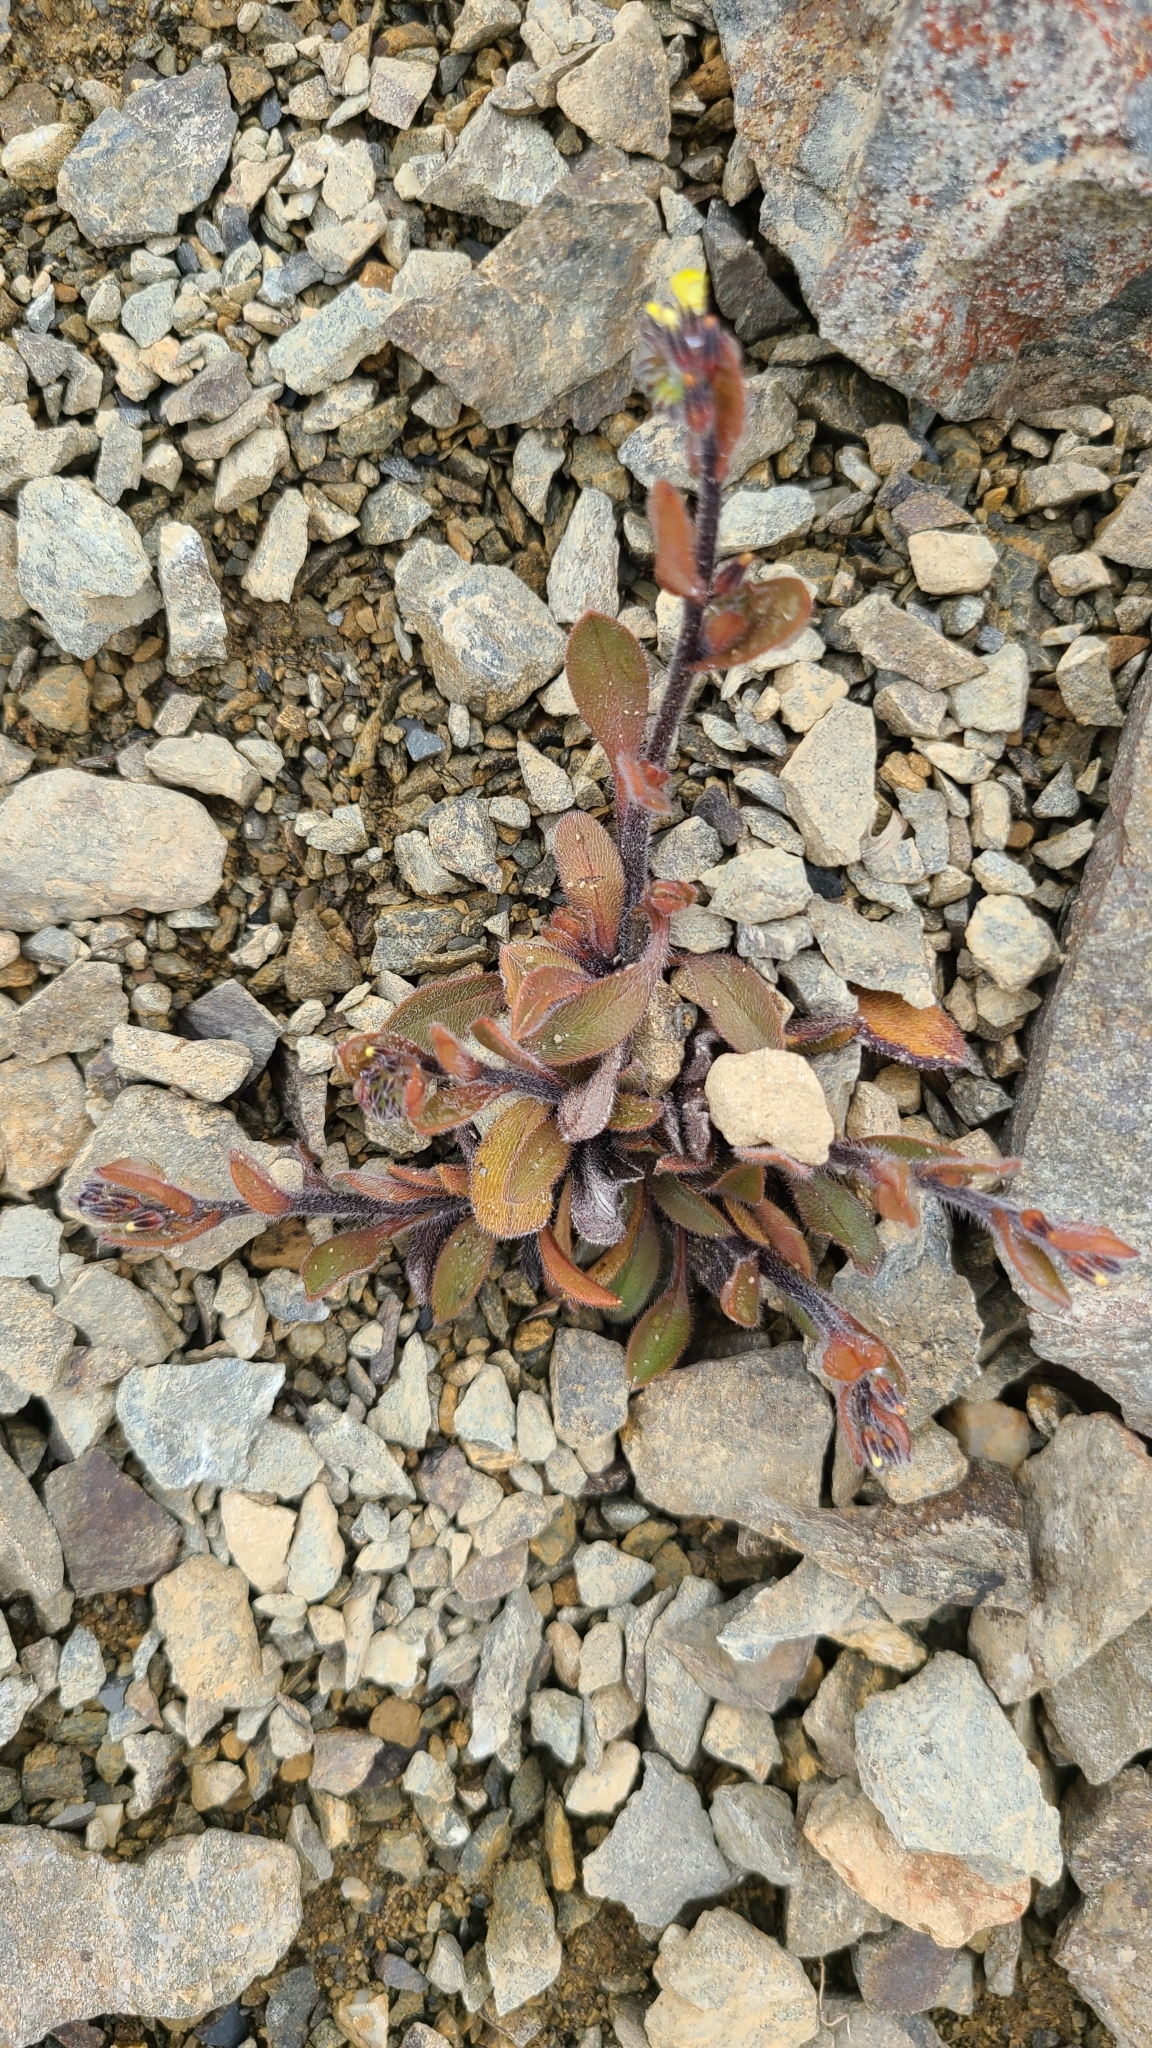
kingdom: Plantae
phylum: Tracheophyta
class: Magnoliopsida
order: Boraginales
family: Boraginaceae
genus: Myosotis
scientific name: Myosotis australis
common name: Australian forget-me-not
